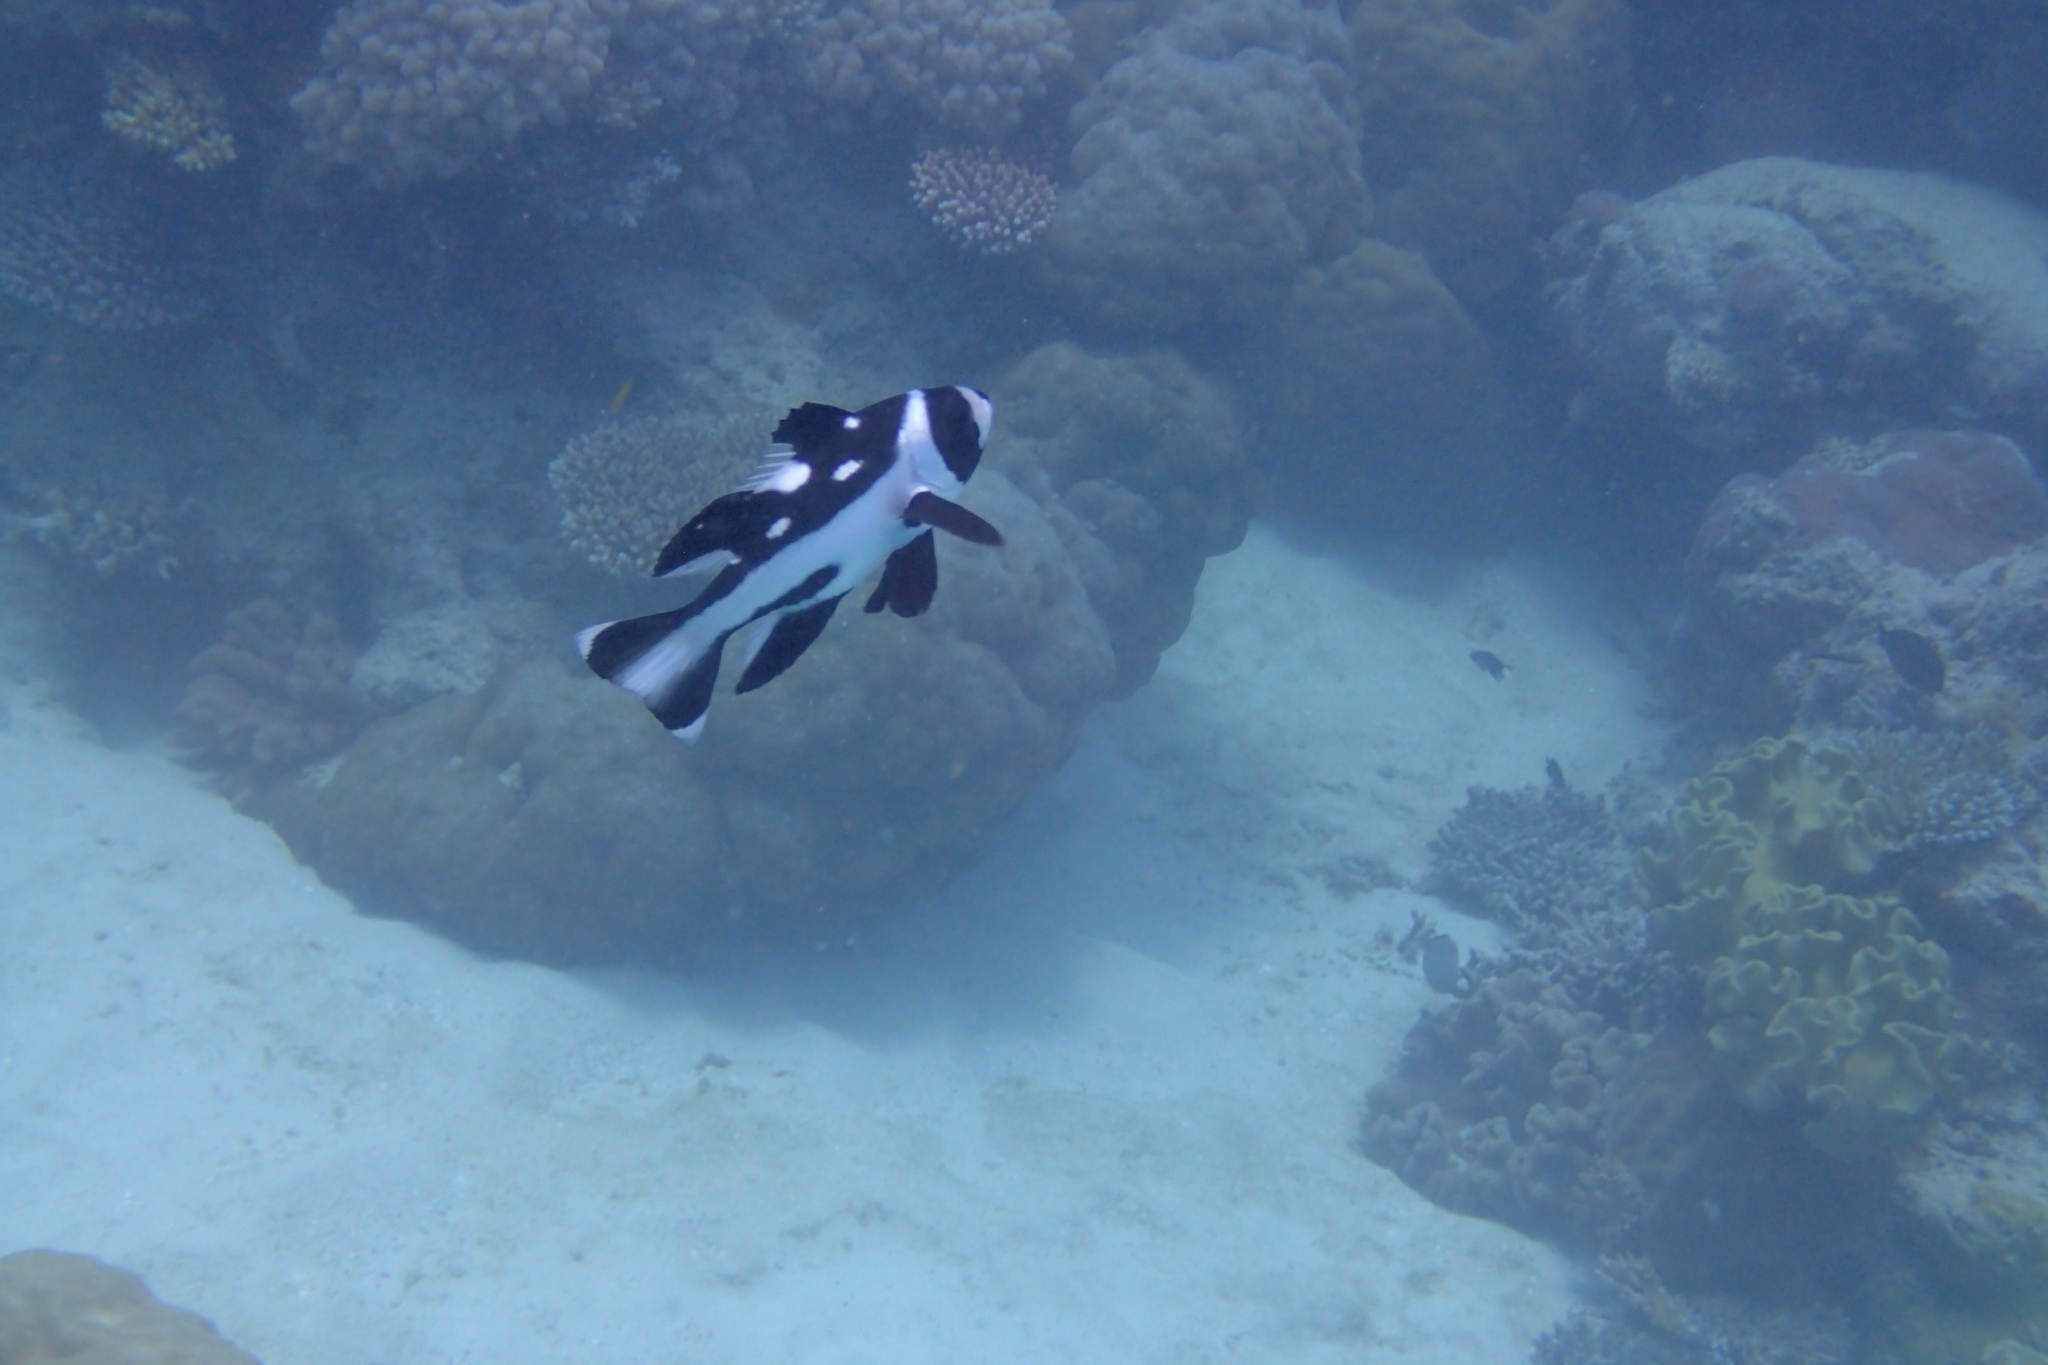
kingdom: Animalia
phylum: Chordata
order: Perciformes
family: Lutjanidae
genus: Macolor
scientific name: Macolor niger
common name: Black snapper
